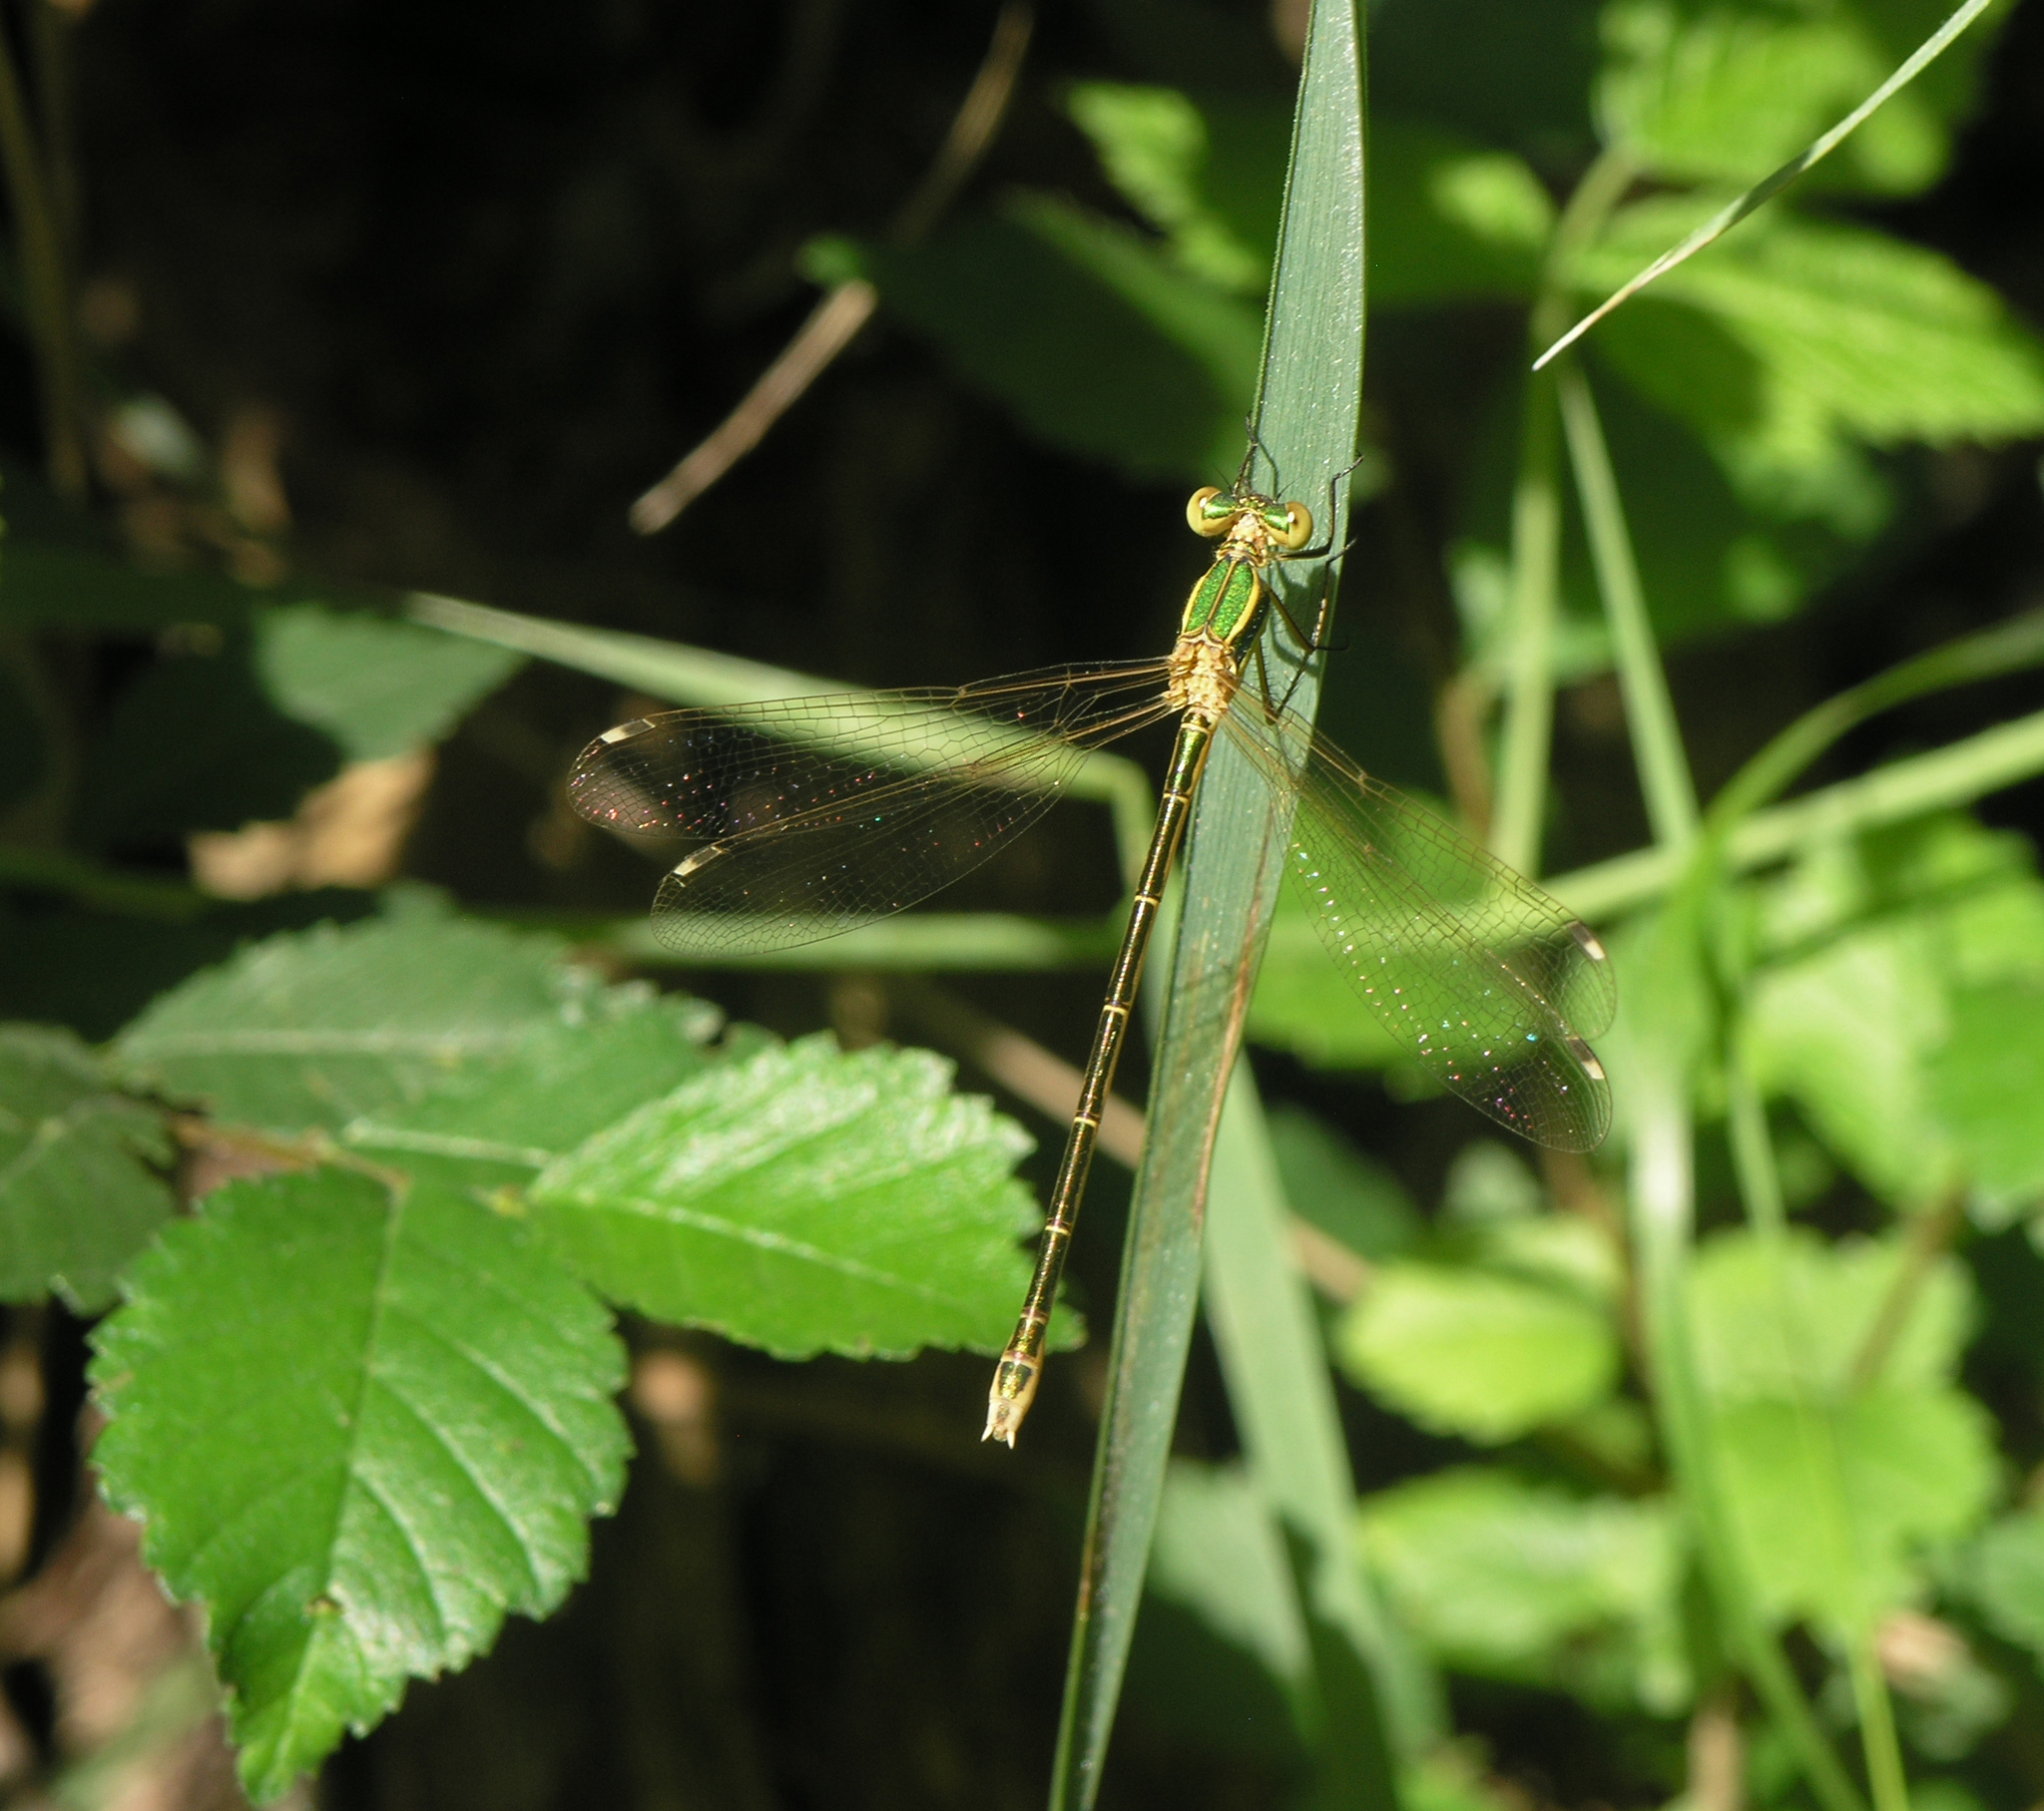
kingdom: Animalia
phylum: Arthropoda
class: Insecta
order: Odonata
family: Lestidae
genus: Lestes
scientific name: Lestes barbarus
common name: Migrant spreadwing
